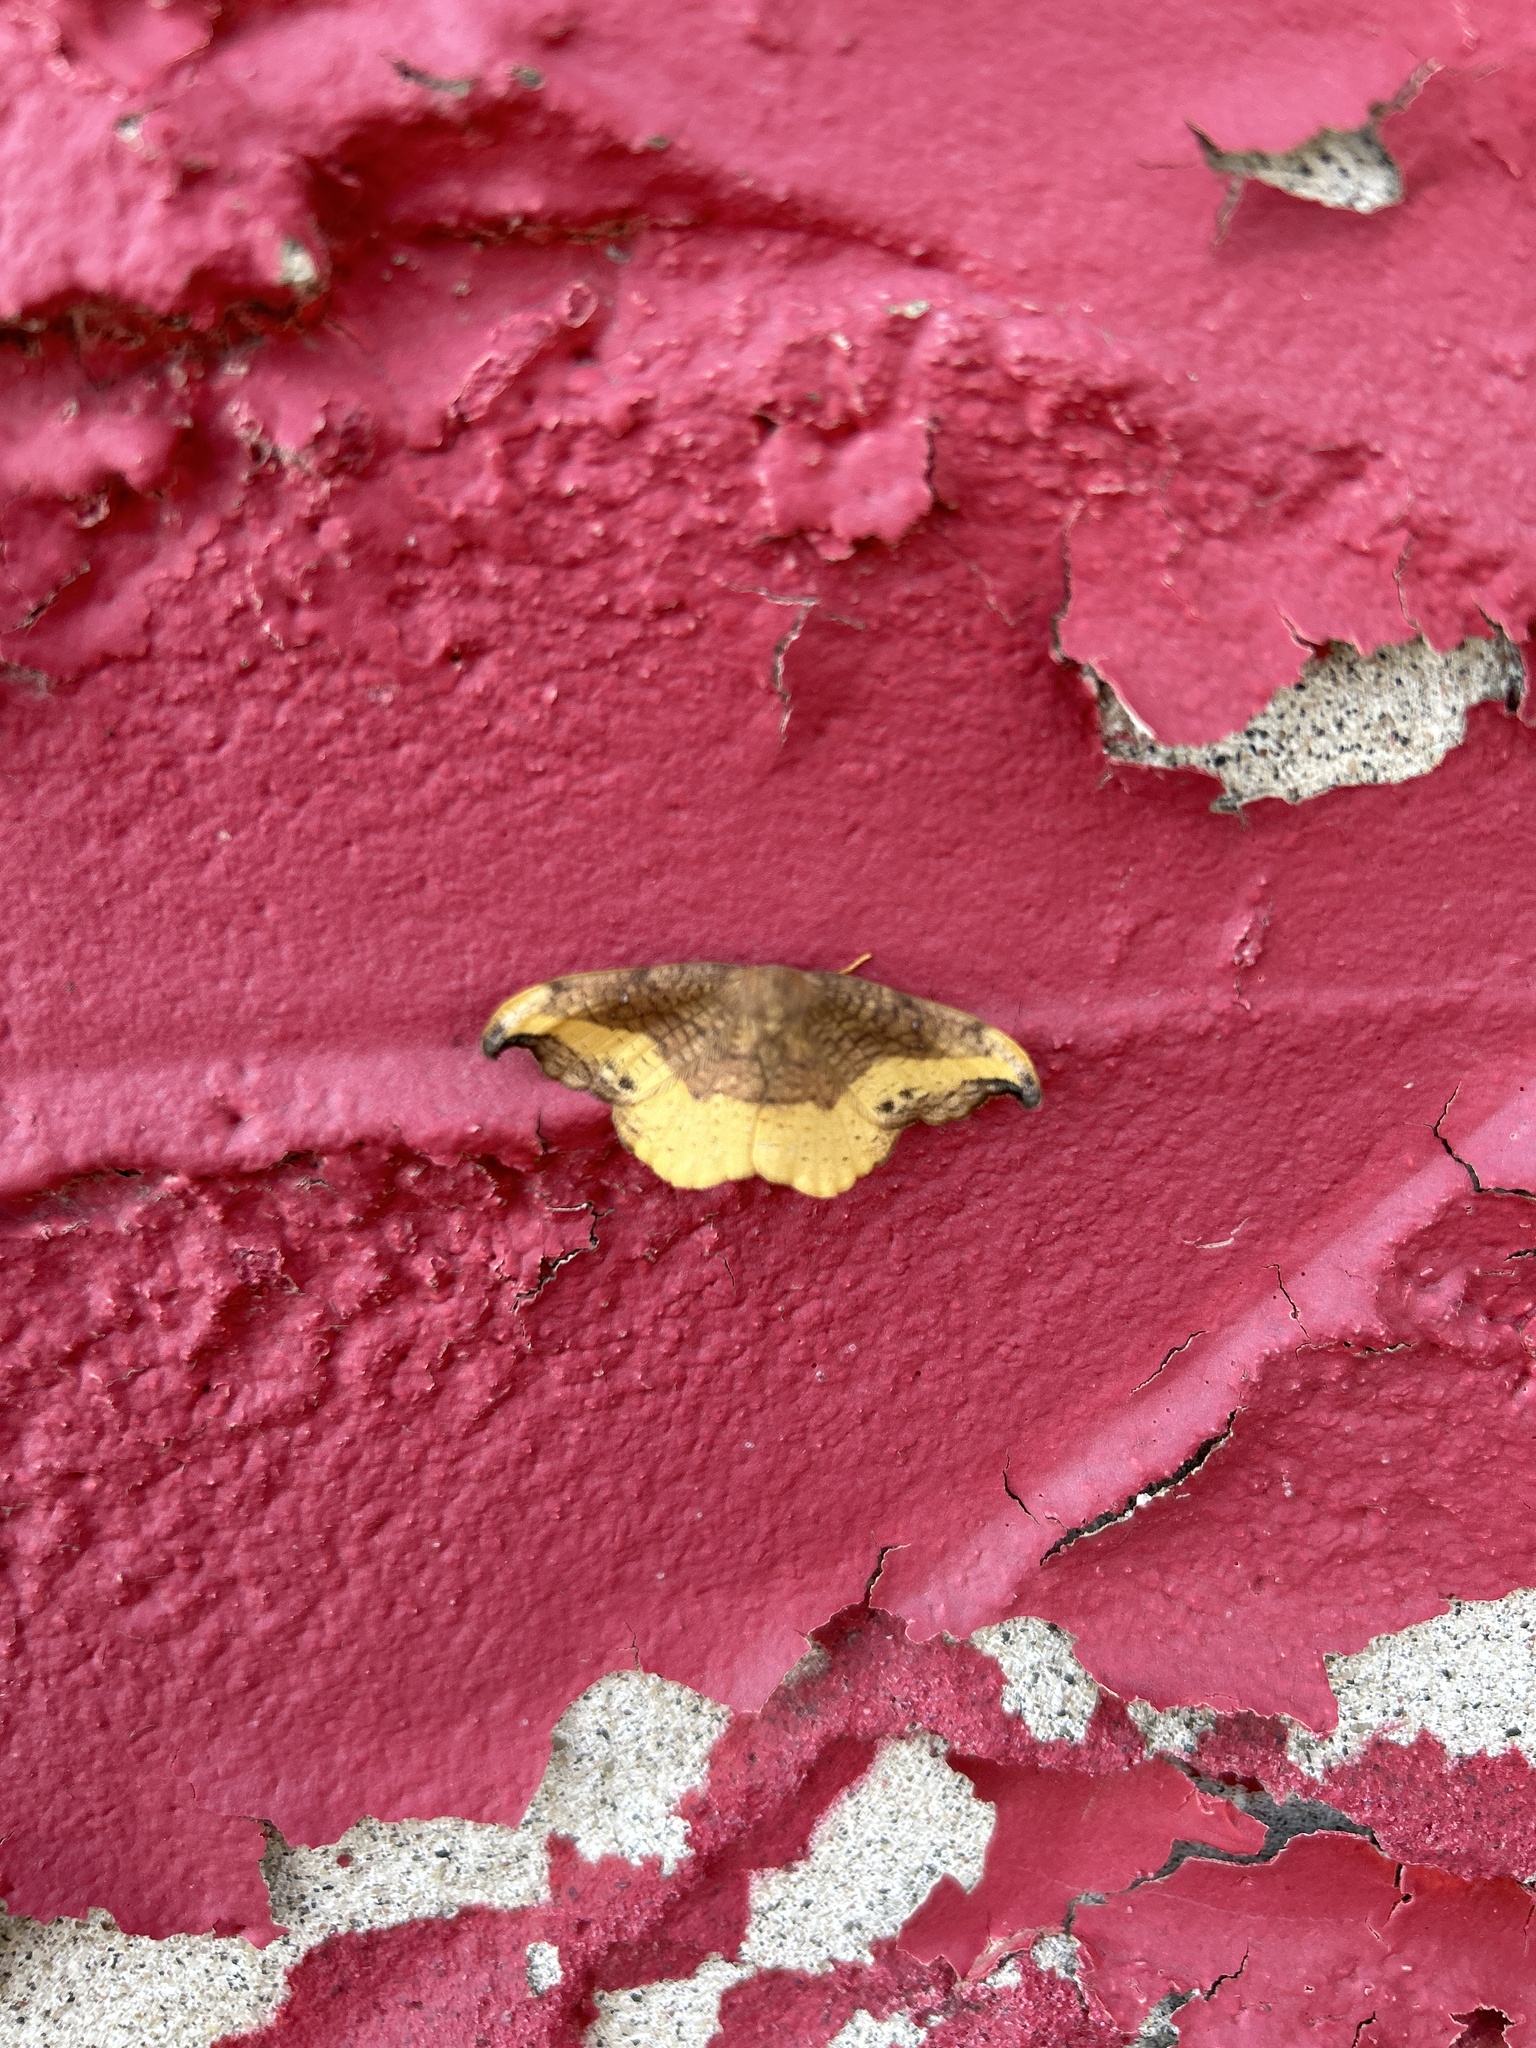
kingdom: Animalia
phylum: Arthropoda
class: Insecta
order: Lepidoptera
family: Drepanidae
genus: Oreta
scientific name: Oreta rosea
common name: Rose hooktip
